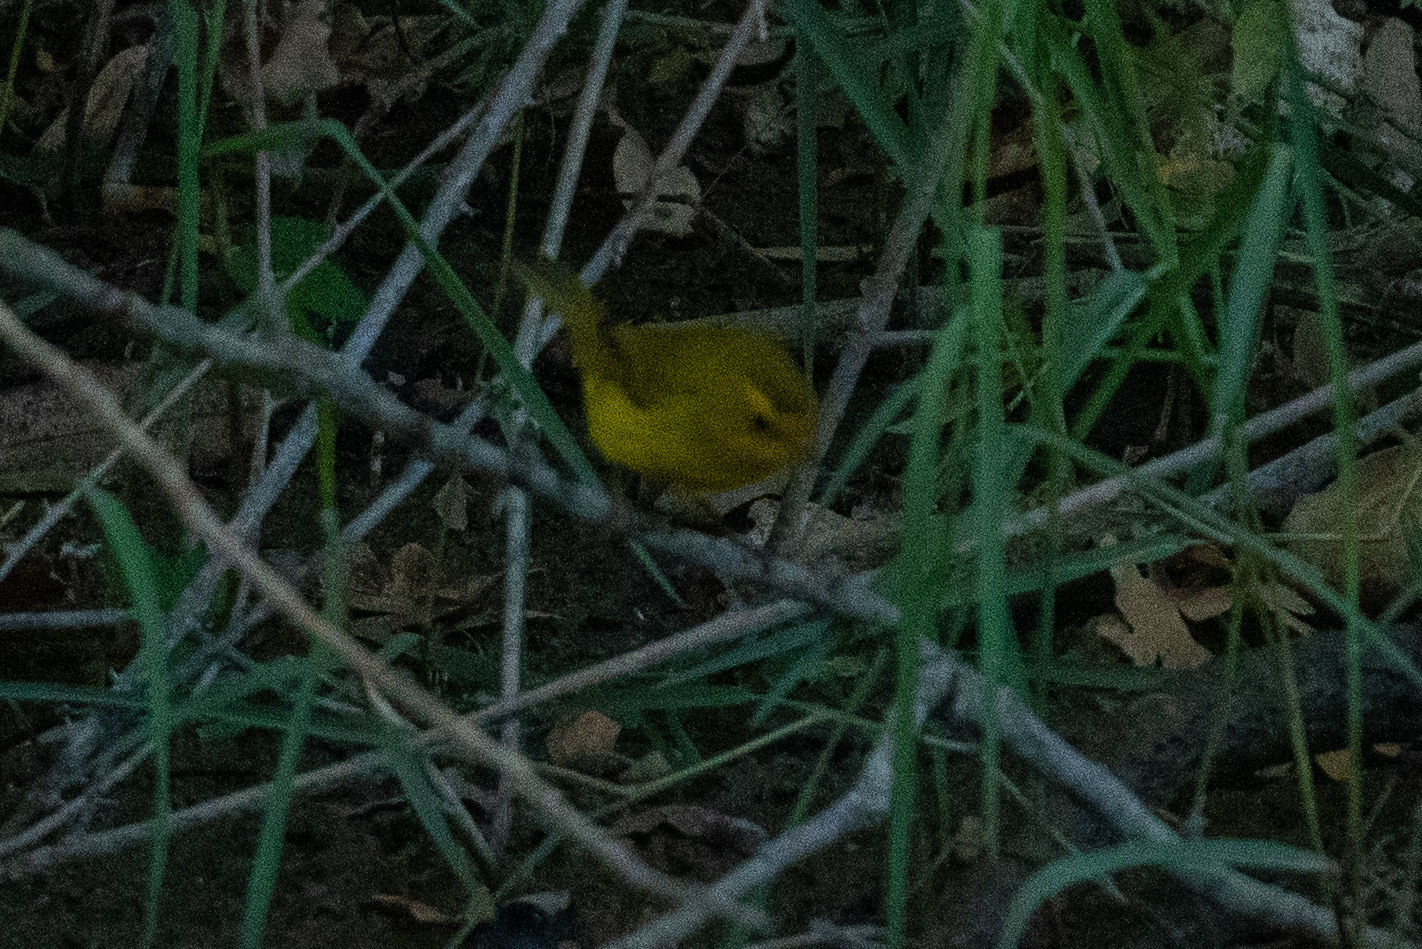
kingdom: Animalia
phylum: Chordata
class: Aves
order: Passeriformes
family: Parulidae
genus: Cardellina
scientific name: Cardellina pusilla
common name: Wilson's warbler
